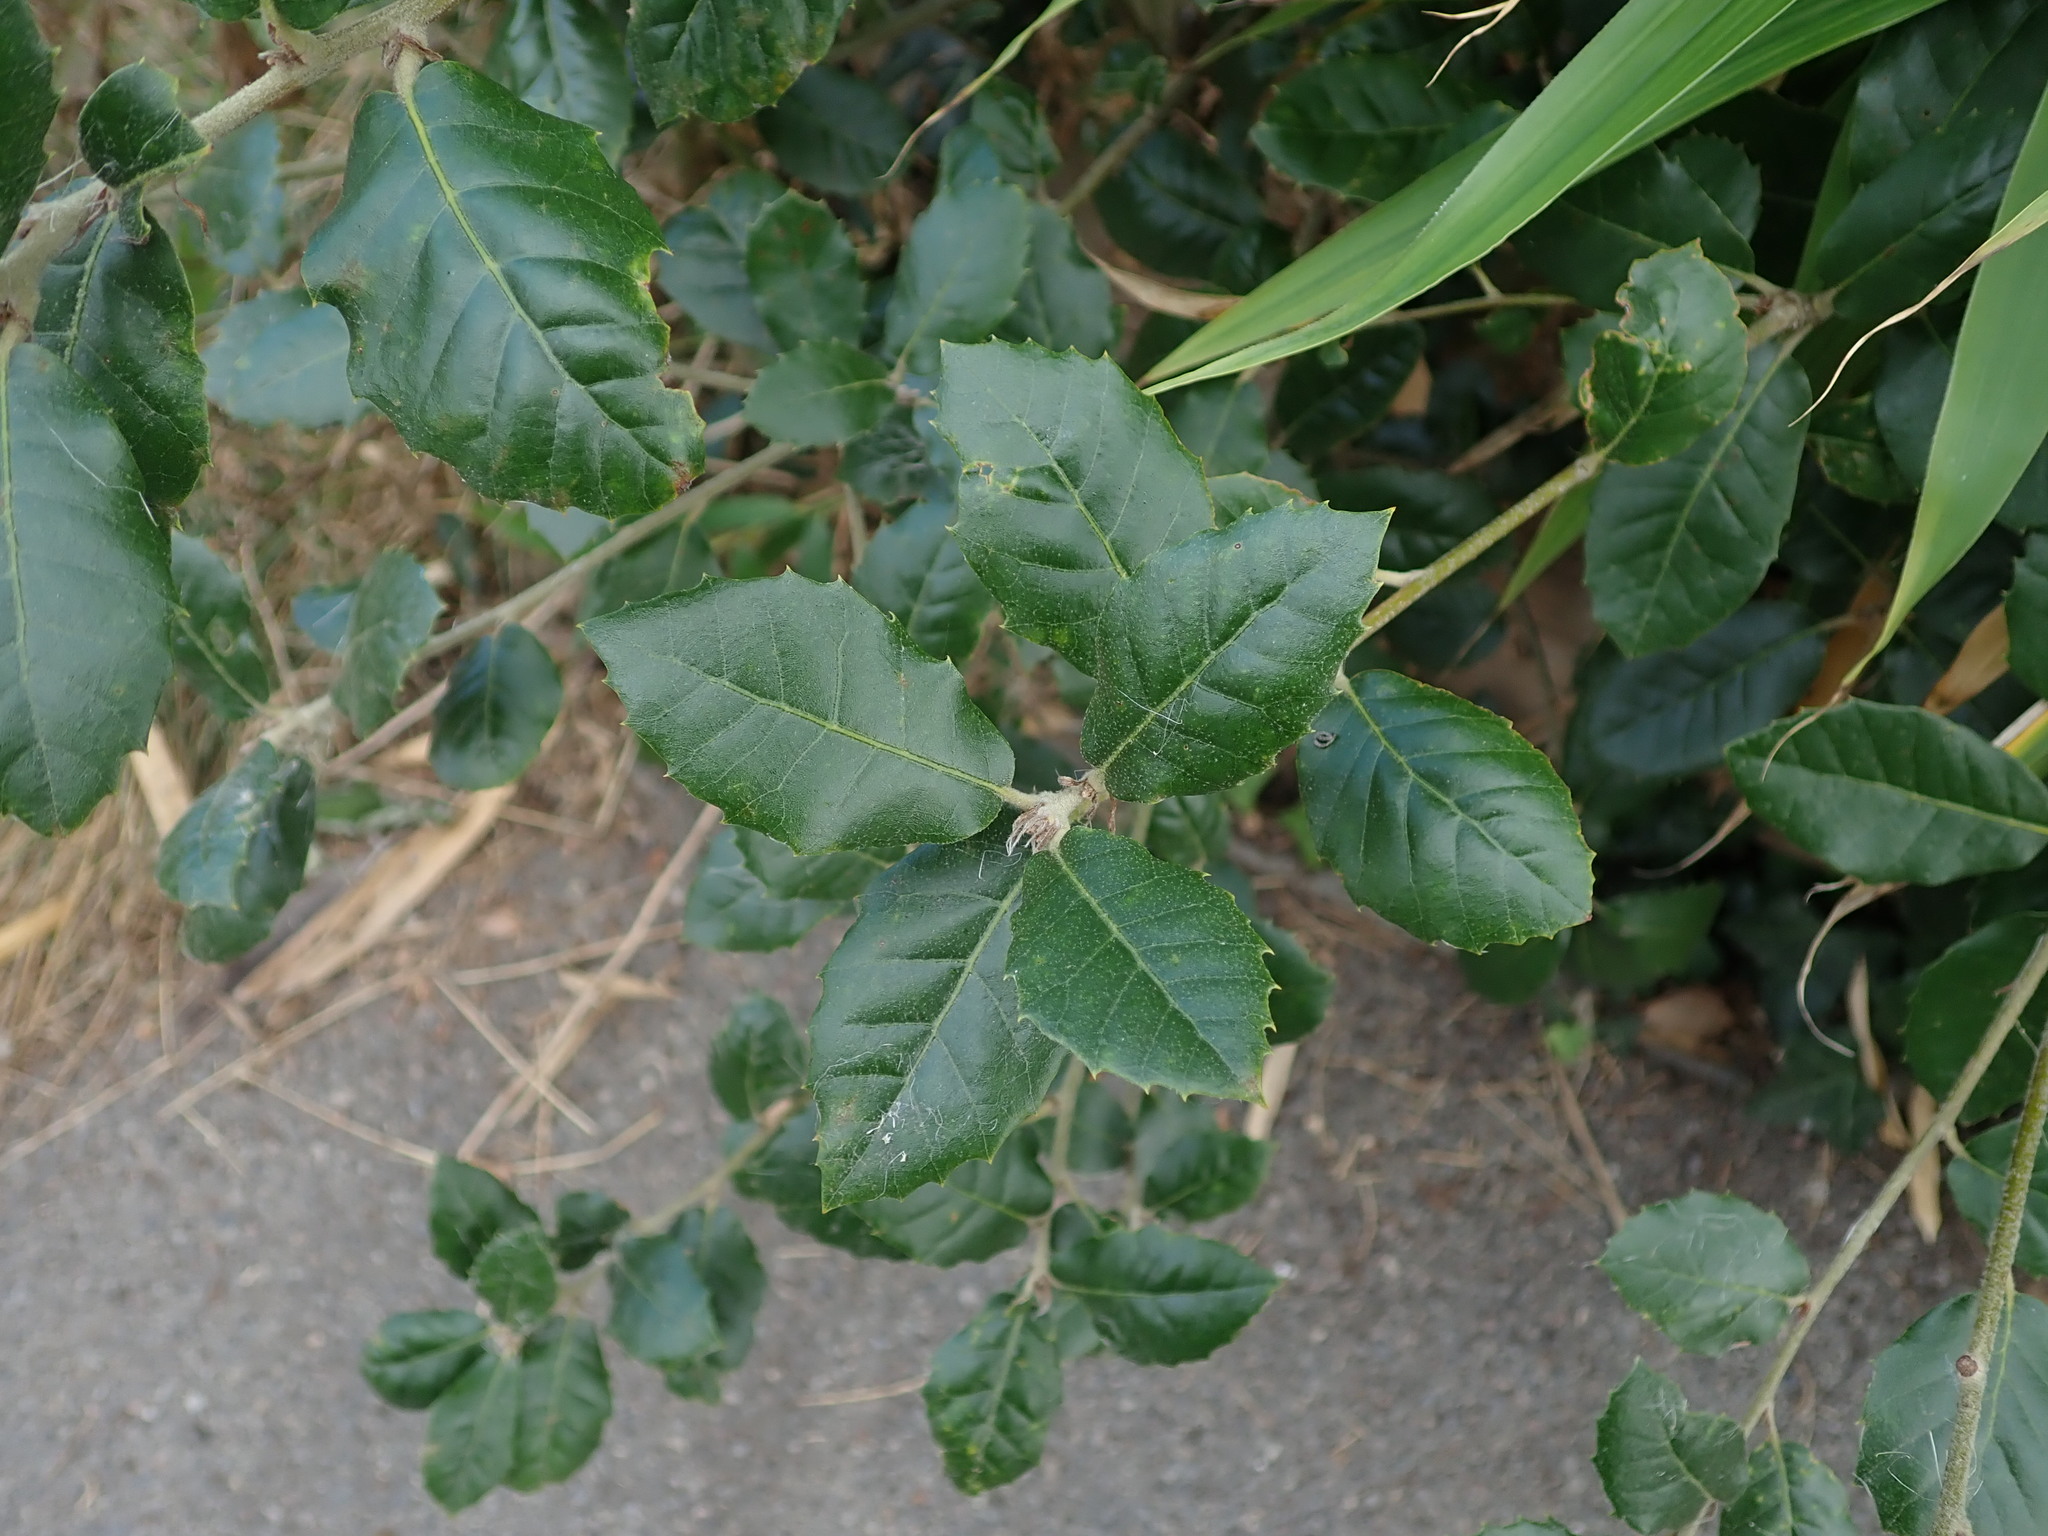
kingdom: Plantae
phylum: Tracheophyta
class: Magnoliopsida
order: Fagales
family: Fagaceae
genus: Quercus
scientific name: Quercus ilex
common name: Evergreen oak
